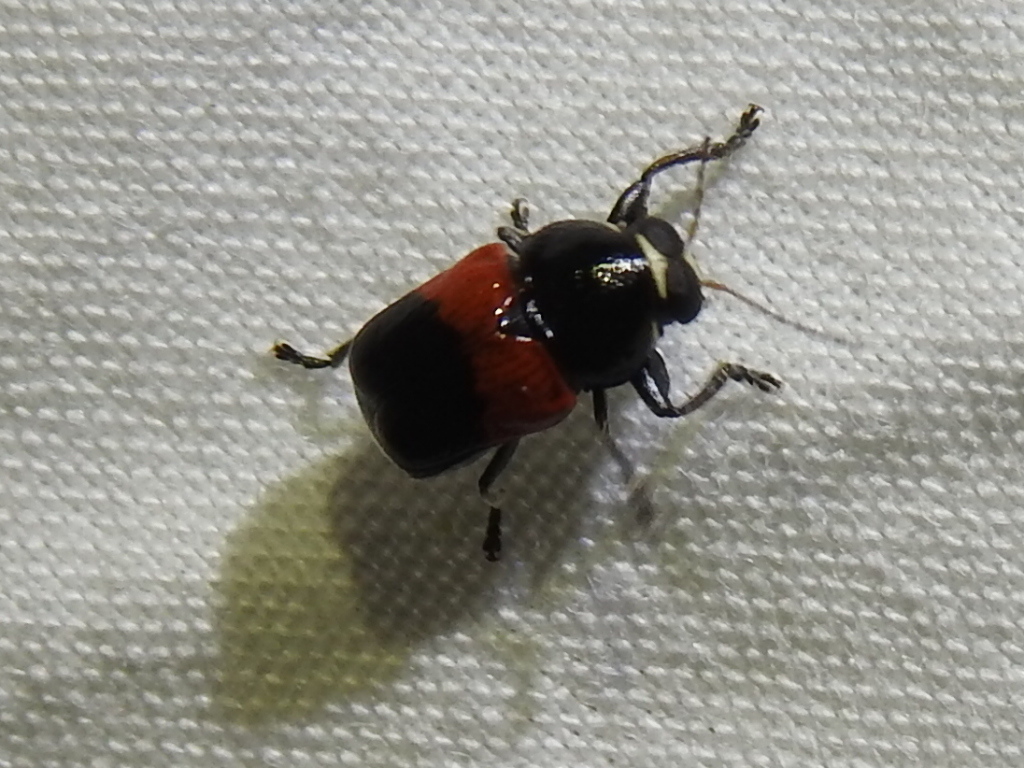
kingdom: Animalia
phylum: Arthropoda
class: Insecta
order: Coleoptera
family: Chrysomelidae
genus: Scelolyperus
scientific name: Scelolyperus lecontii
